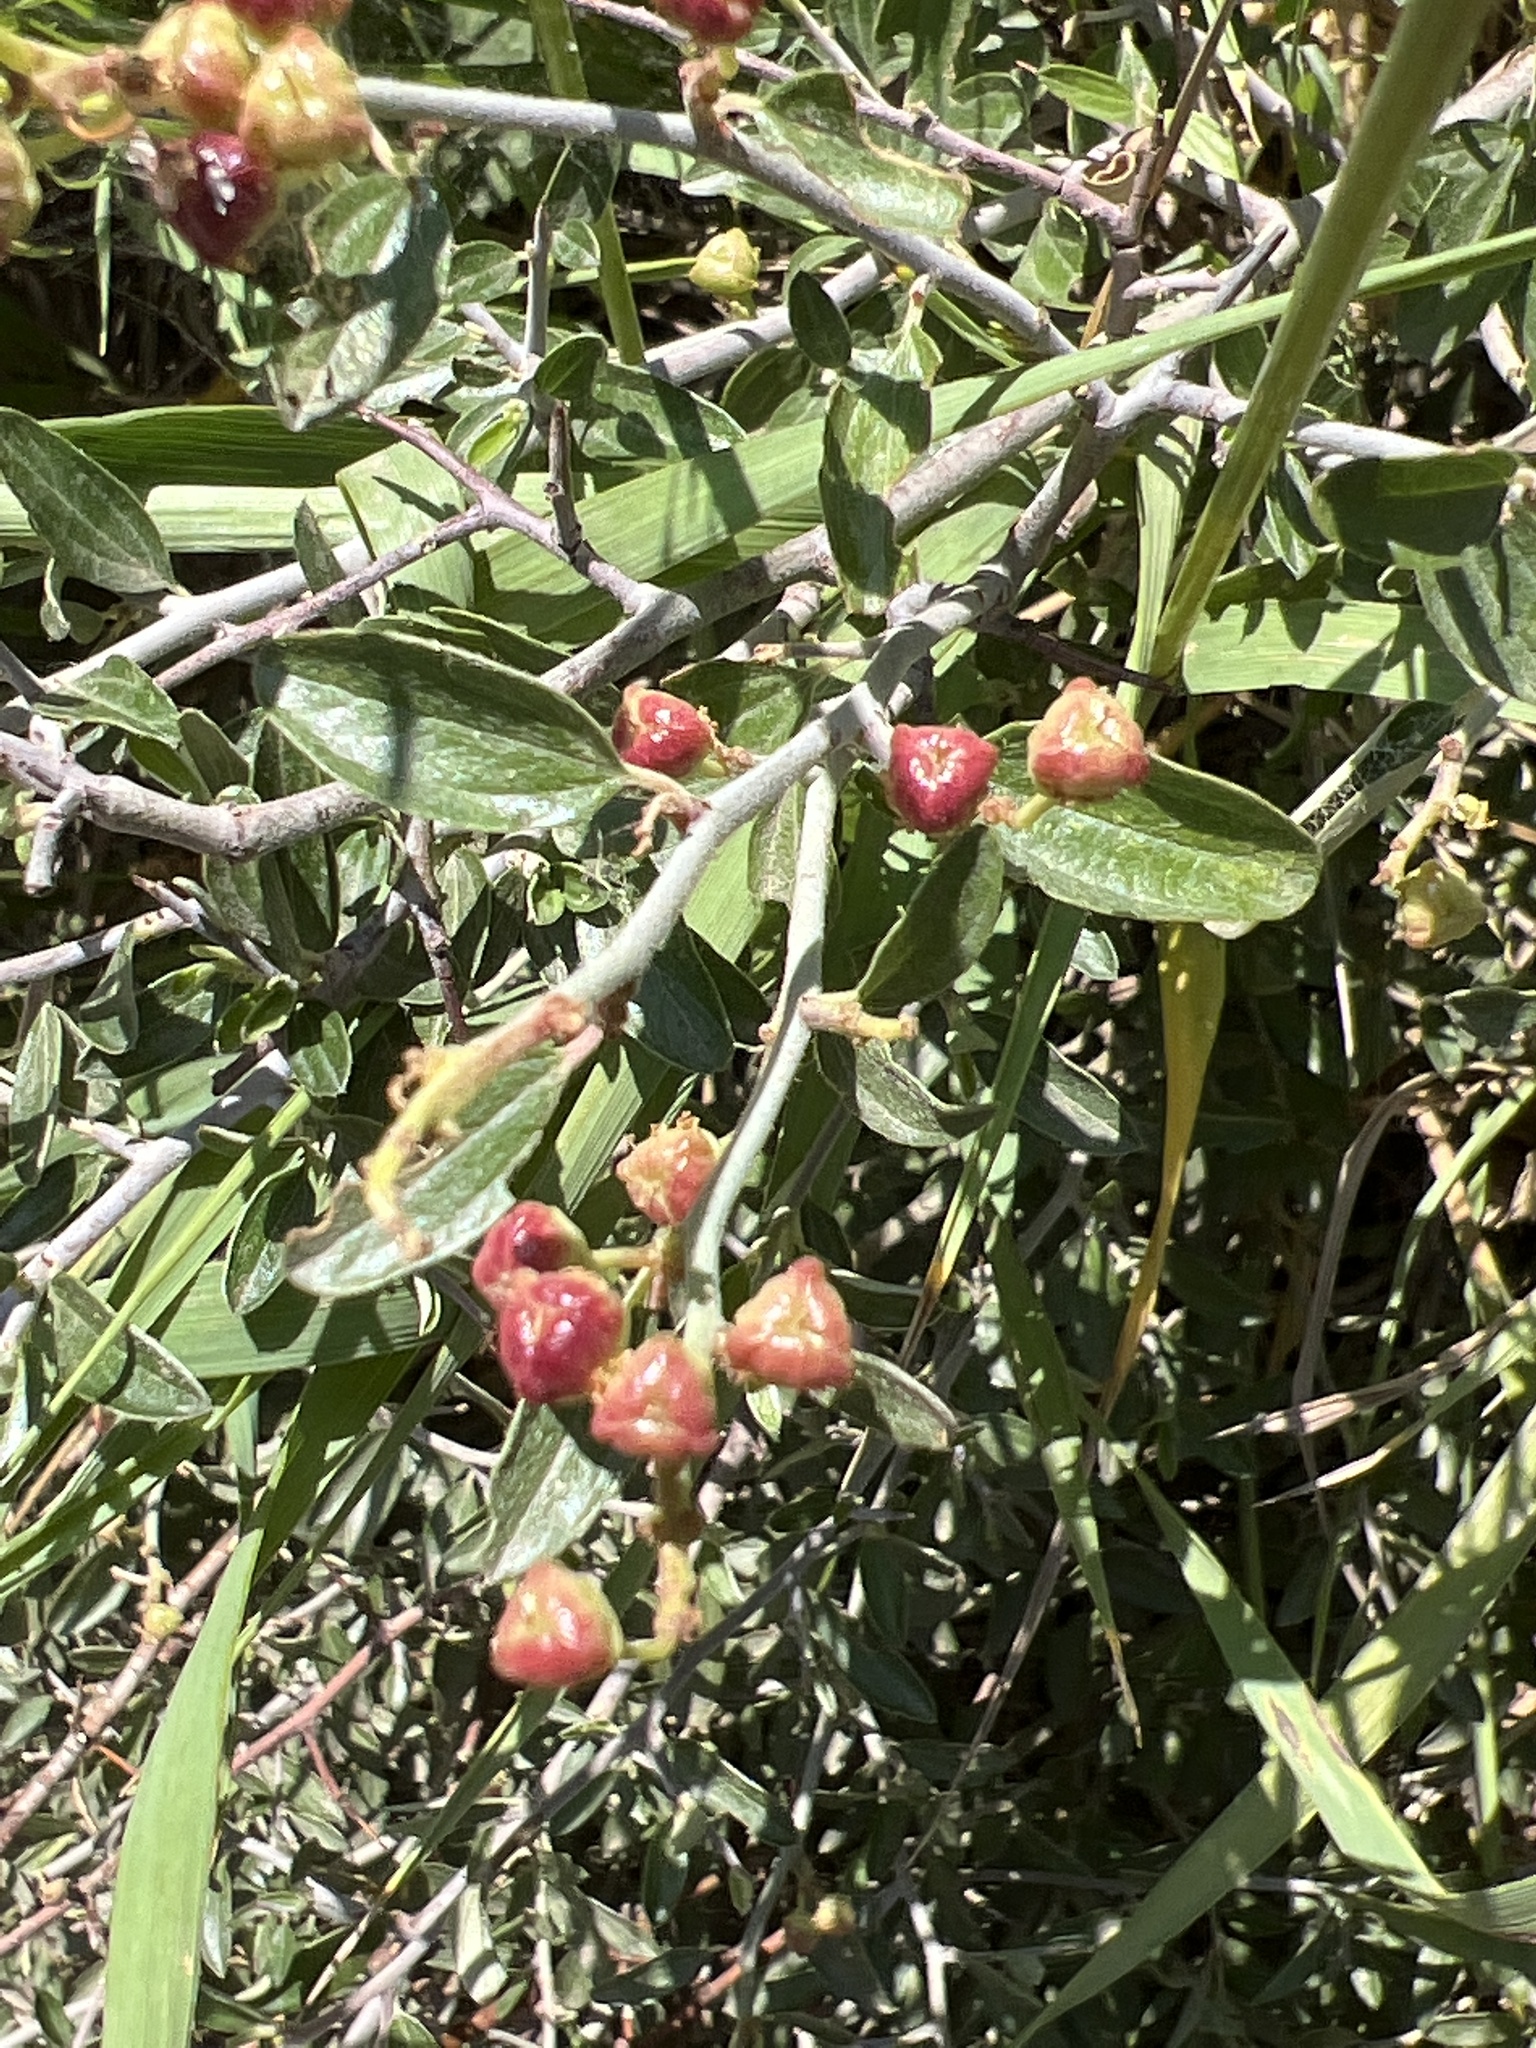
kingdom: Plantae
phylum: Tracheophyta
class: Magnoliopsida
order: Rosales
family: Rhamnaceae
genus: Ceanothus
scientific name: Ceanothus fendleri
